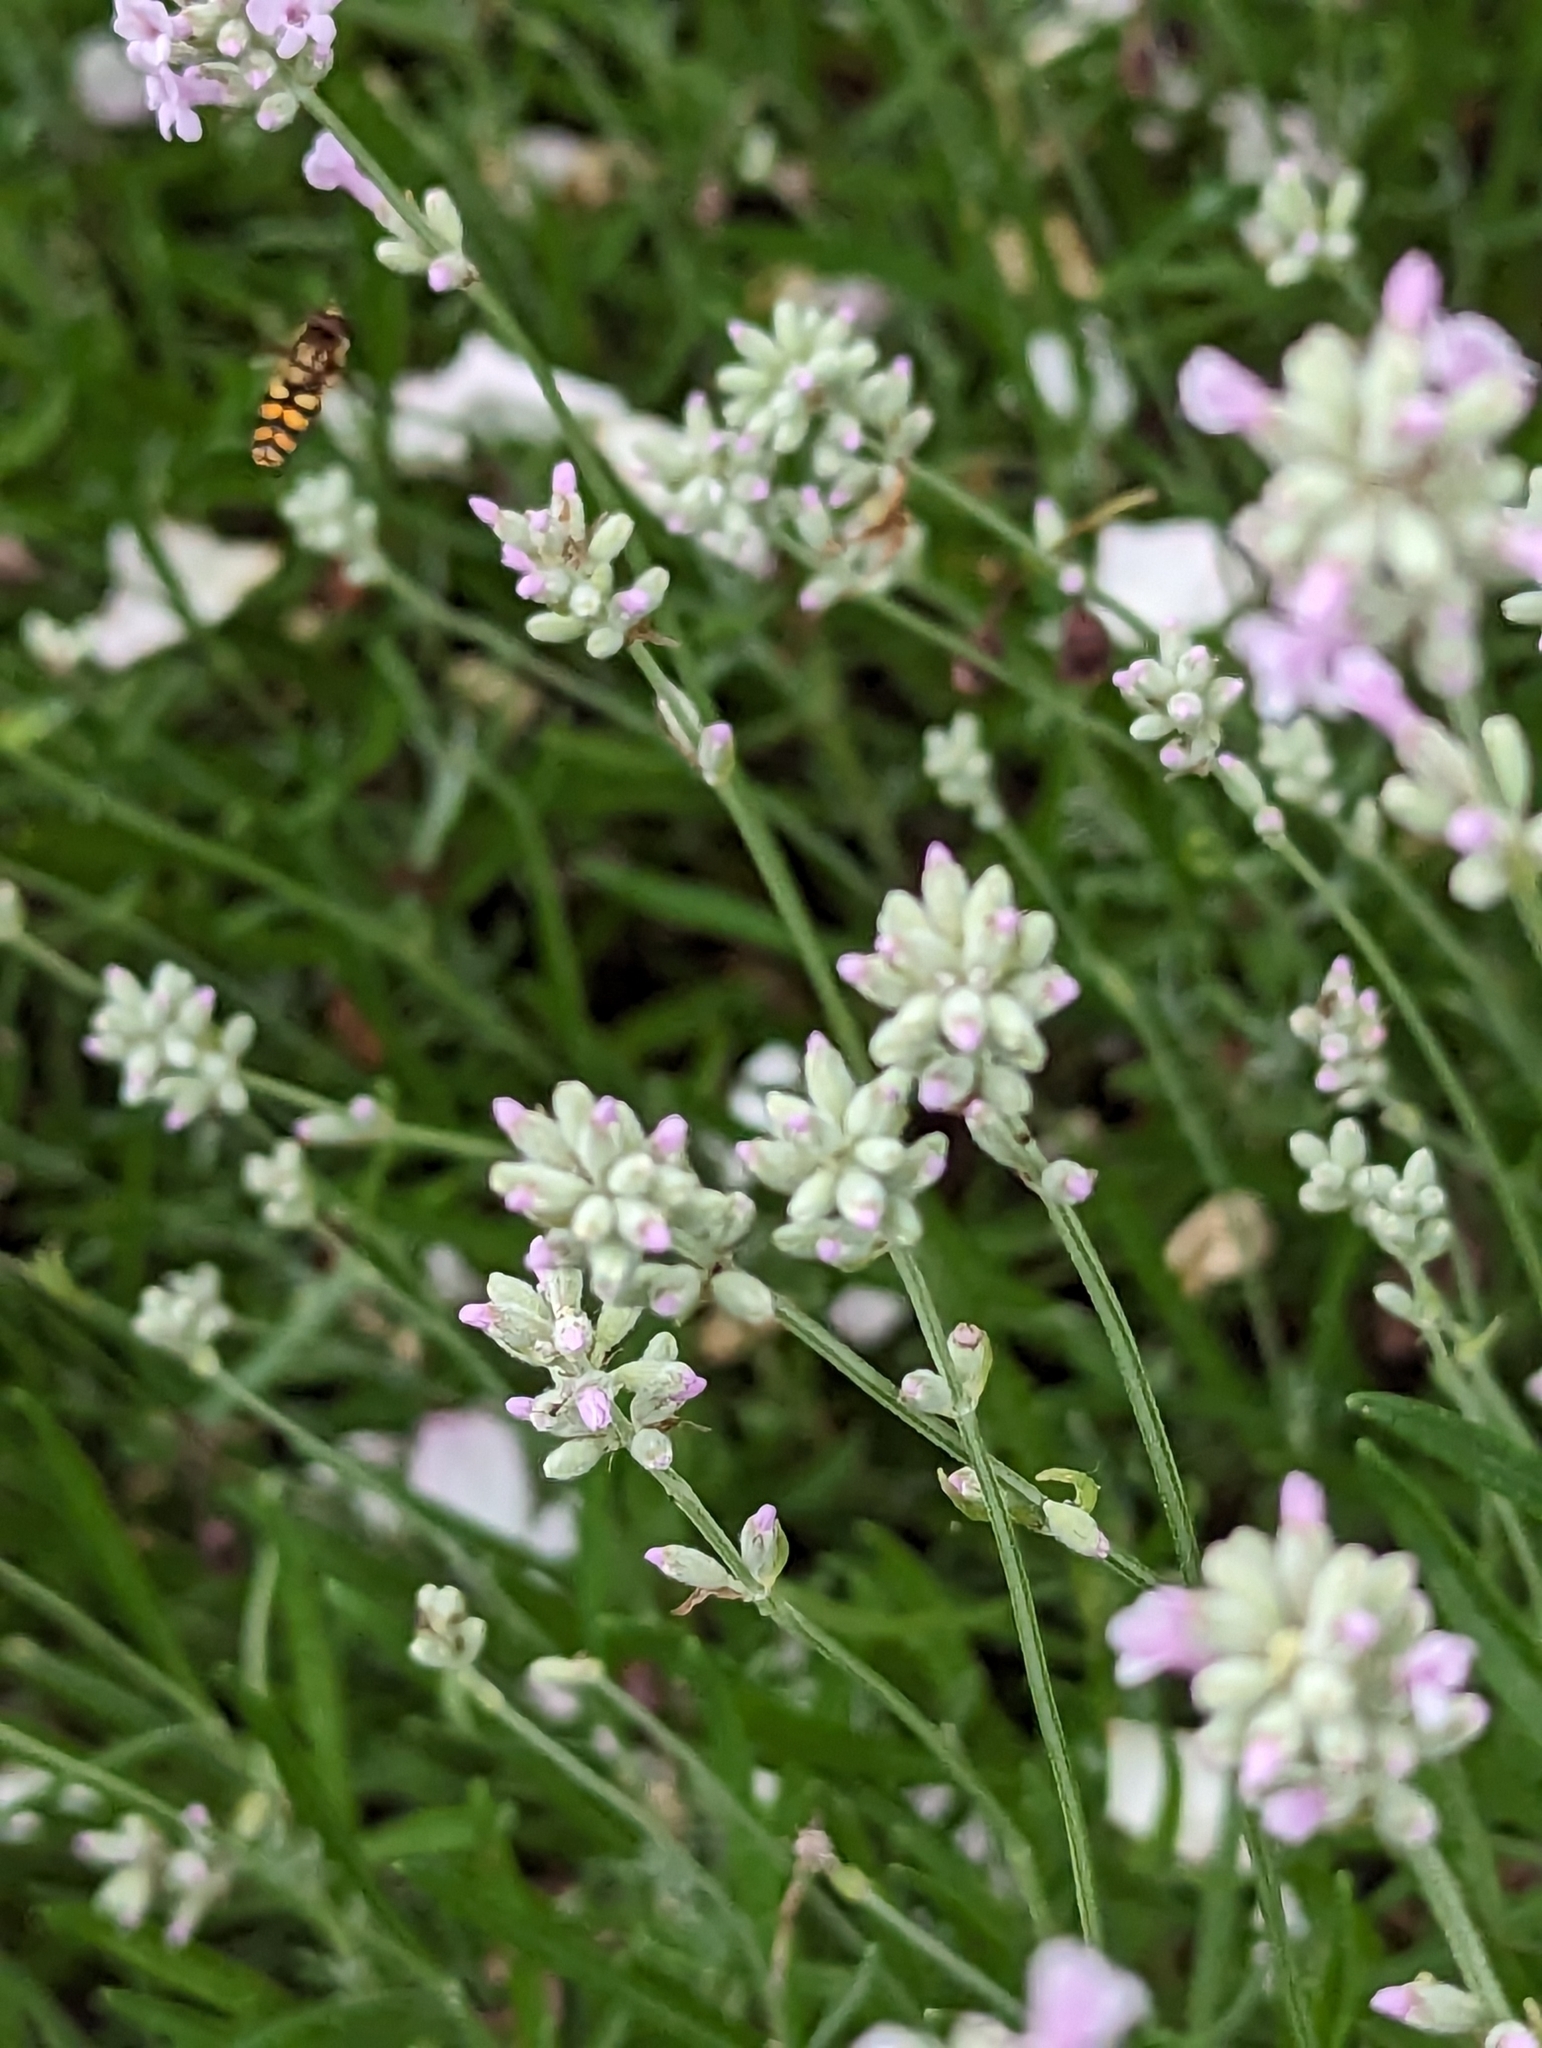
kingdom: Animalia
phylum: Arthropoda
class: Insecta
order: Diptera
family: Syrphidae
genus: Eupeodes
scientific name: Eupeodes
